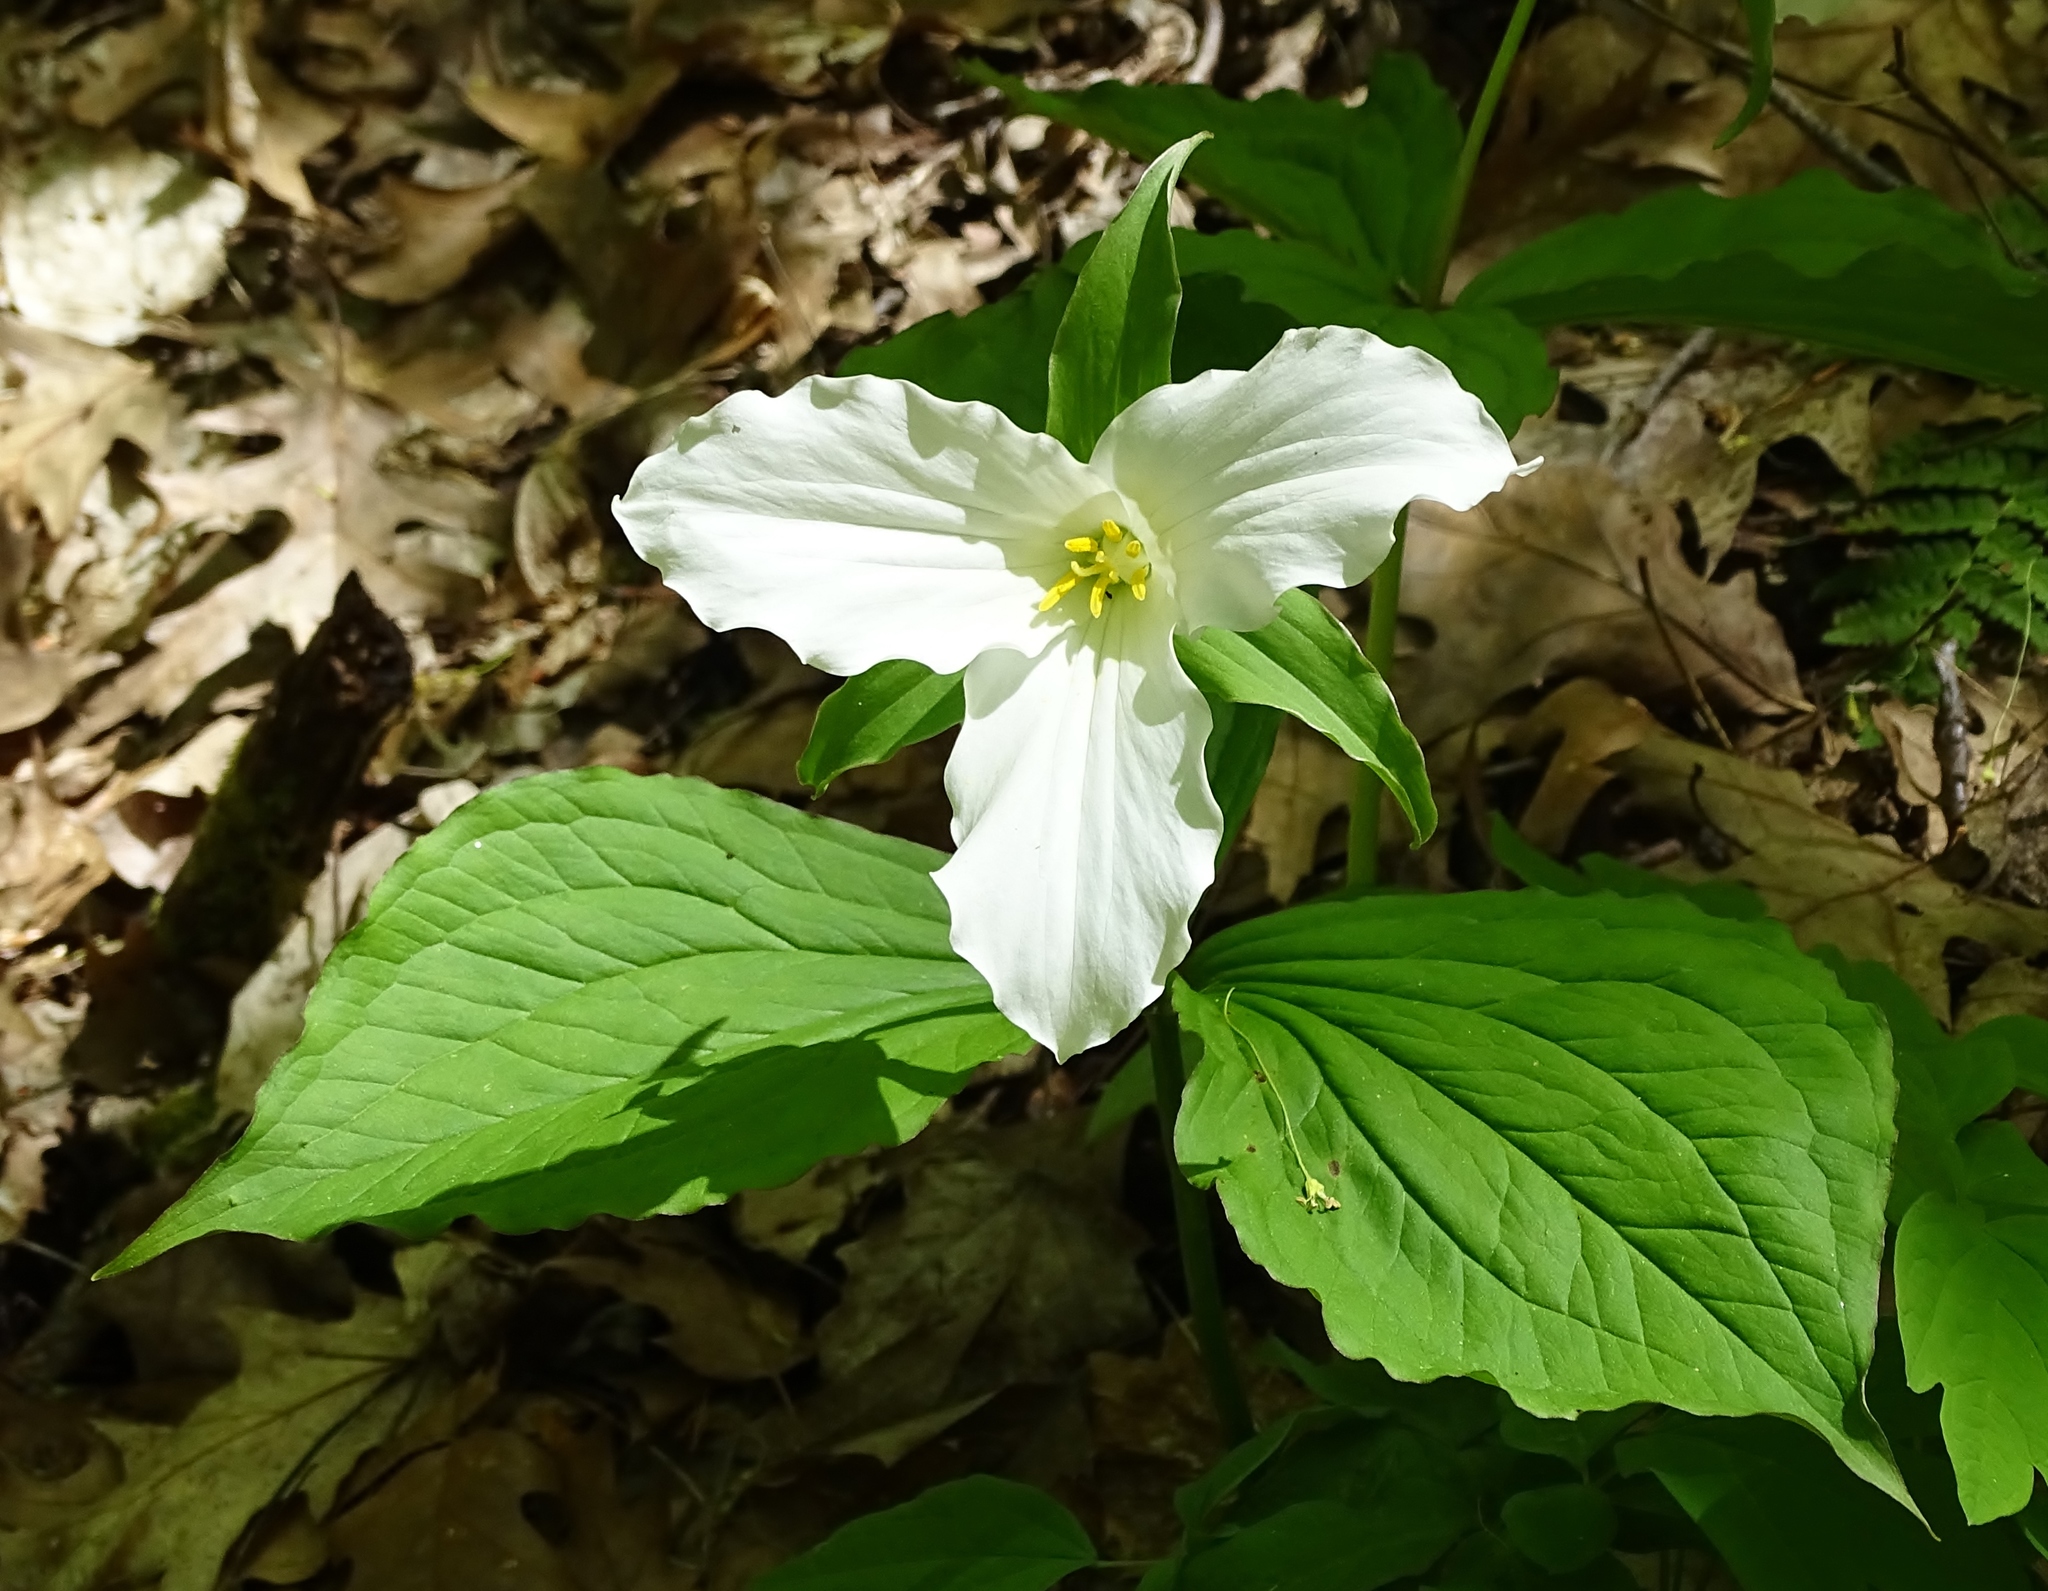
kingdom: Plantae
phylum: Tracheophyta
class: Liliopsida
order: Liliales
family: Melanthiaceae
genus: Trillium
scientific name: Trillium grandiflorum
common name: Great white trillium
